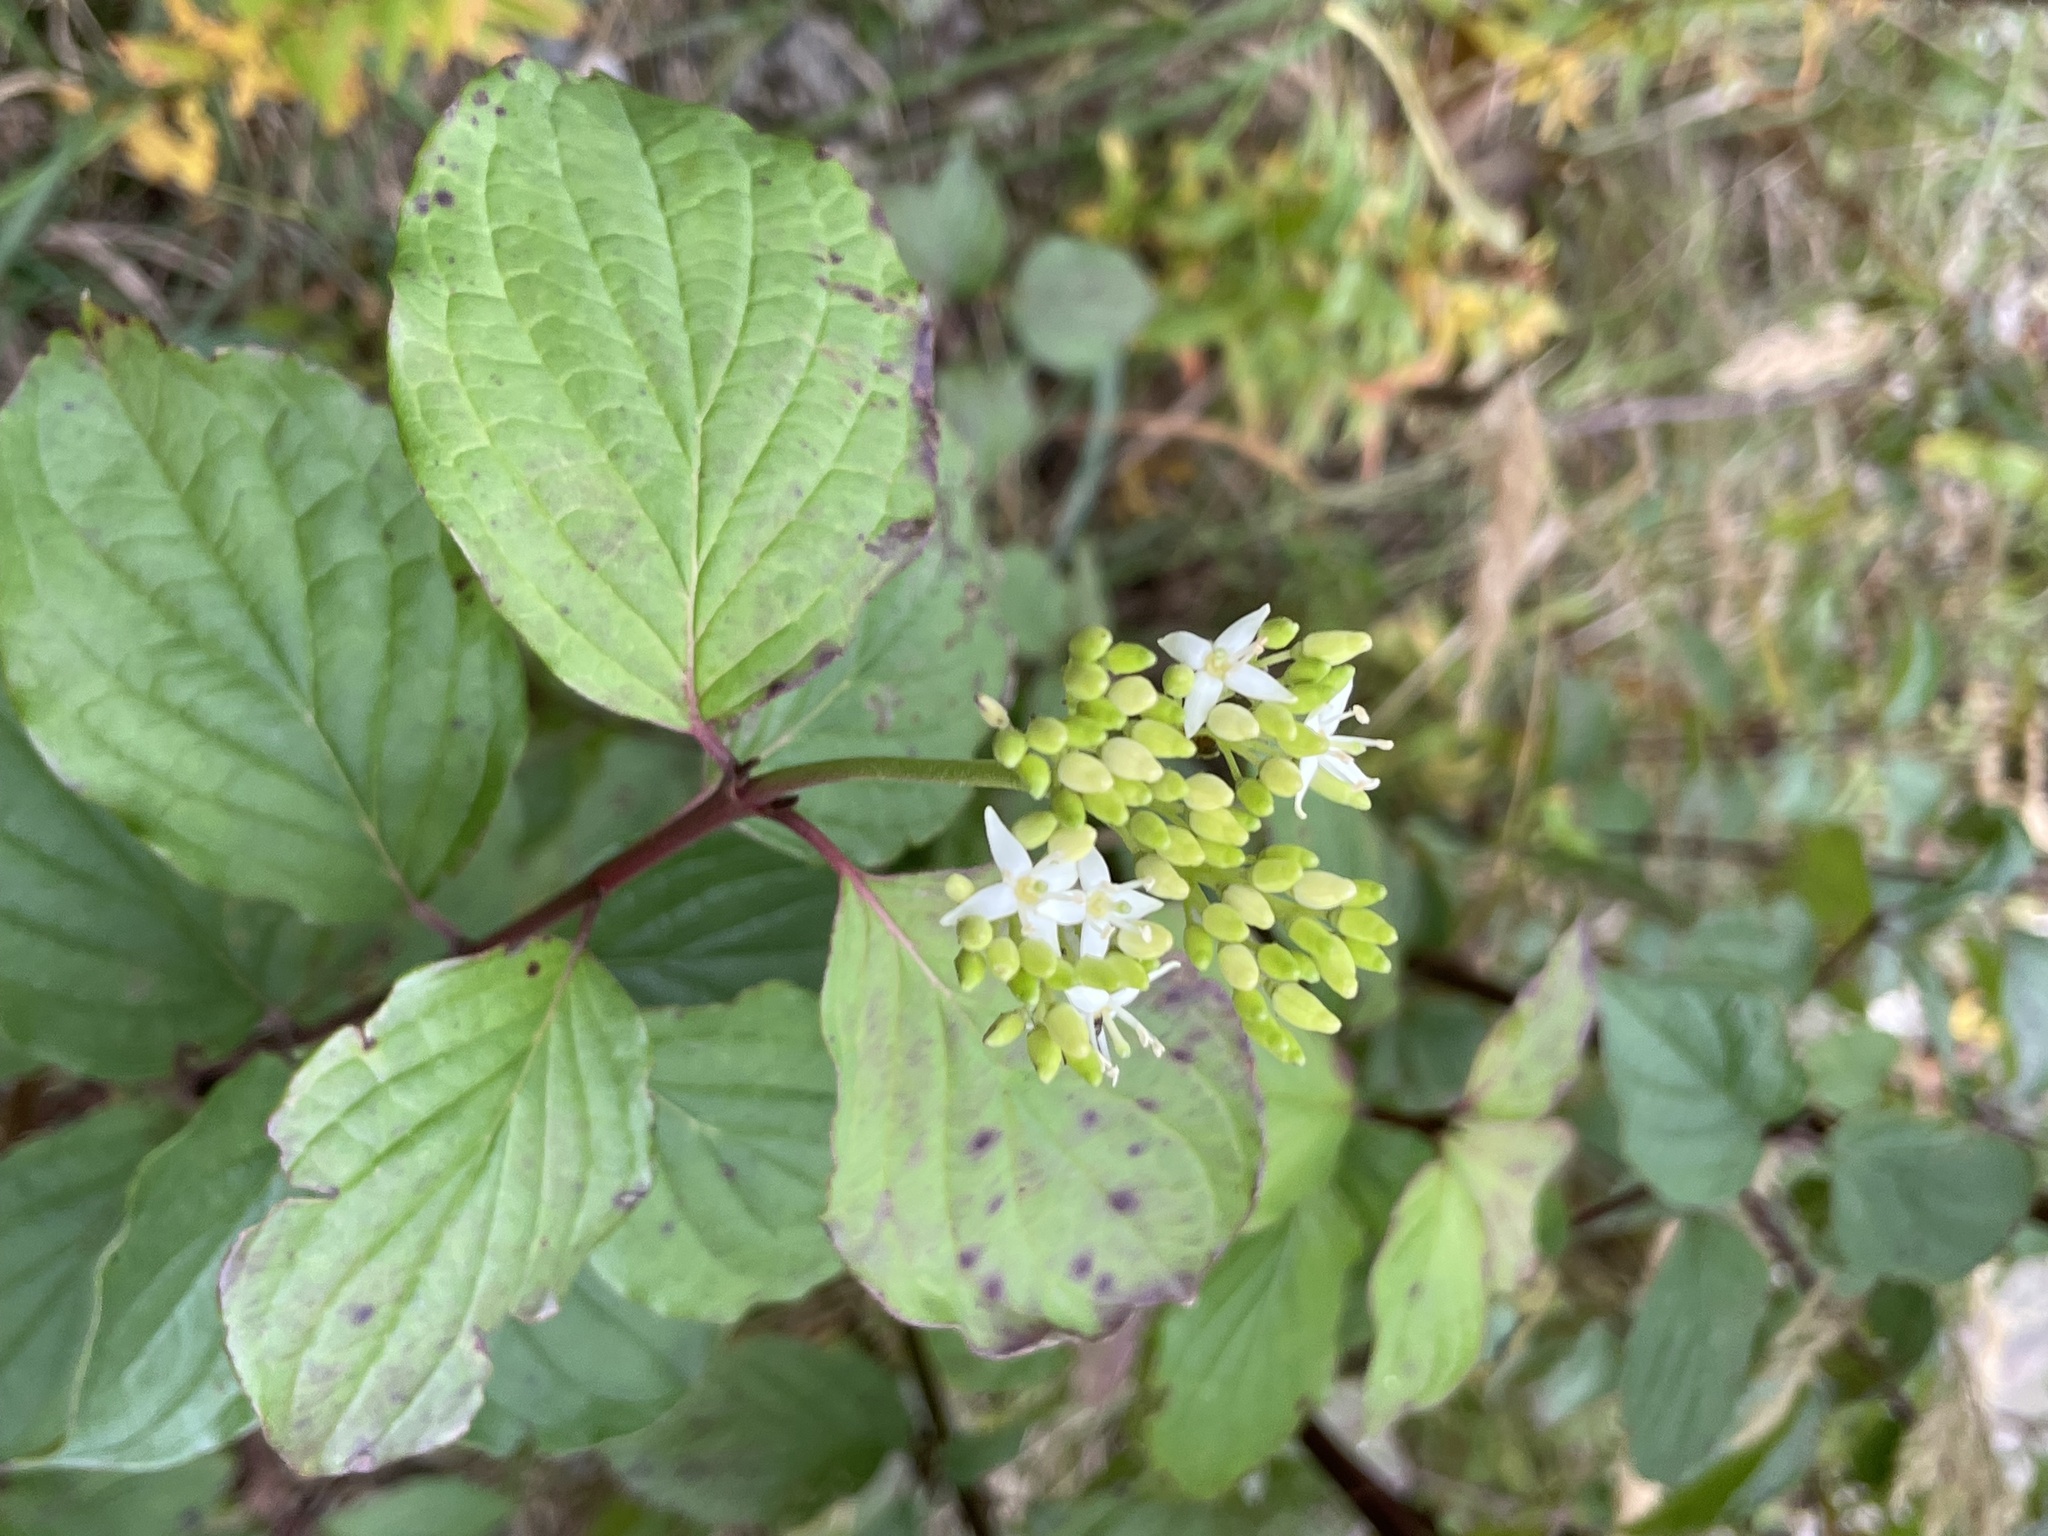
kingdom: Plantae
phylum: Tracheophyta
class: Magnoliopsida
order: Cornales
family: Cornaceae
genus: Cornus
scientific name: Cornus sanguinea
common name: Dogwood
